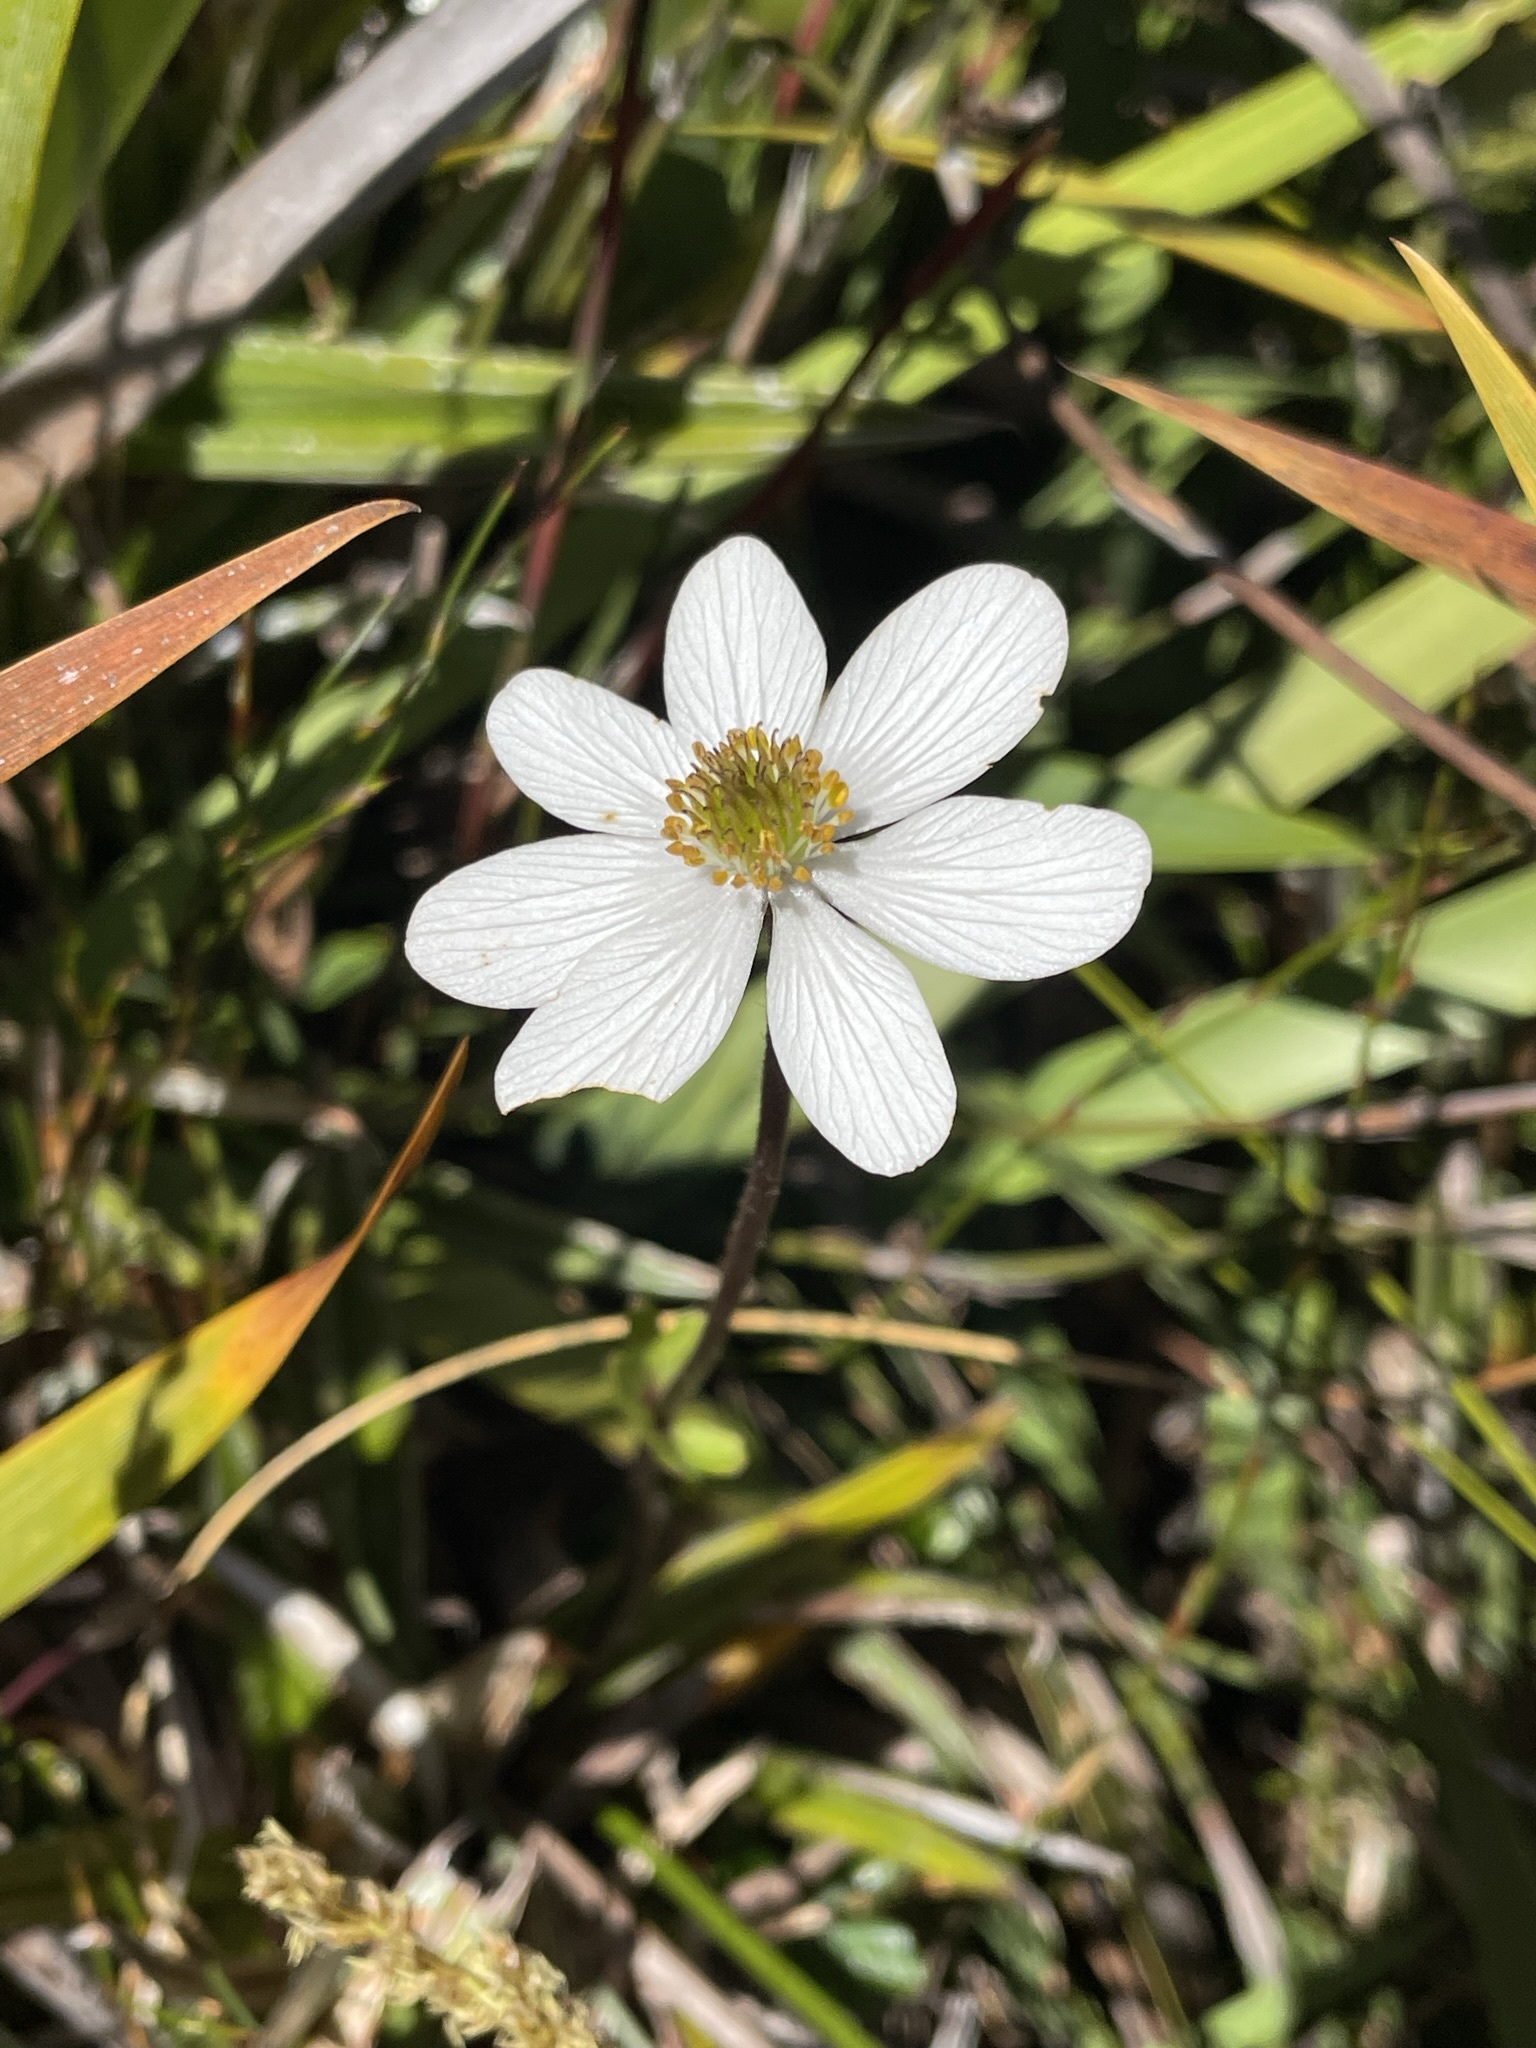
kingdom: Plantae
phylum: Tracheophyta
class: Magnoliopsida
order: Ranunculales
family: Ranunculaceae
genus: Knowltonia
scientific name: Knowltonia crassifolia
